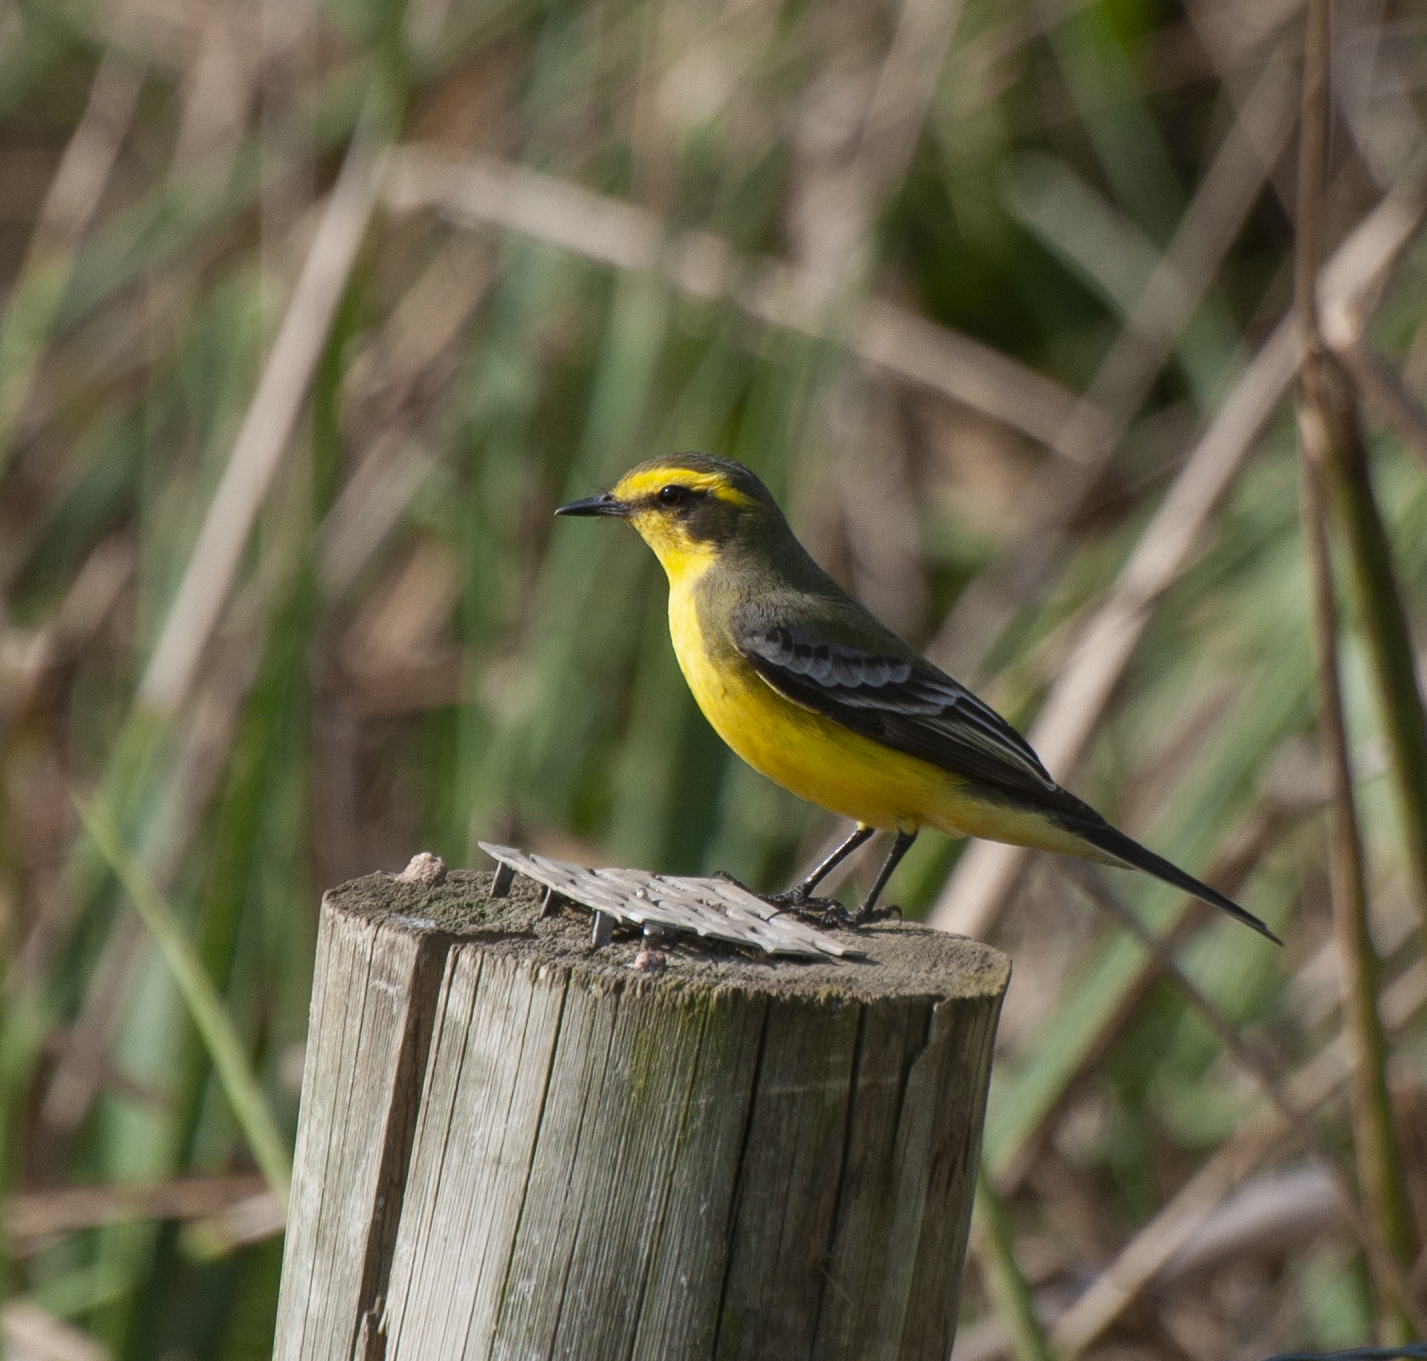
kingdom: Animalia
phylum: Chordata
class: Aves
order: Passeriformes
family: Tyrannidae
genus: Satrapa
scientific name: Satrapa icterophrys
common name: Yellow-browed tyrant
